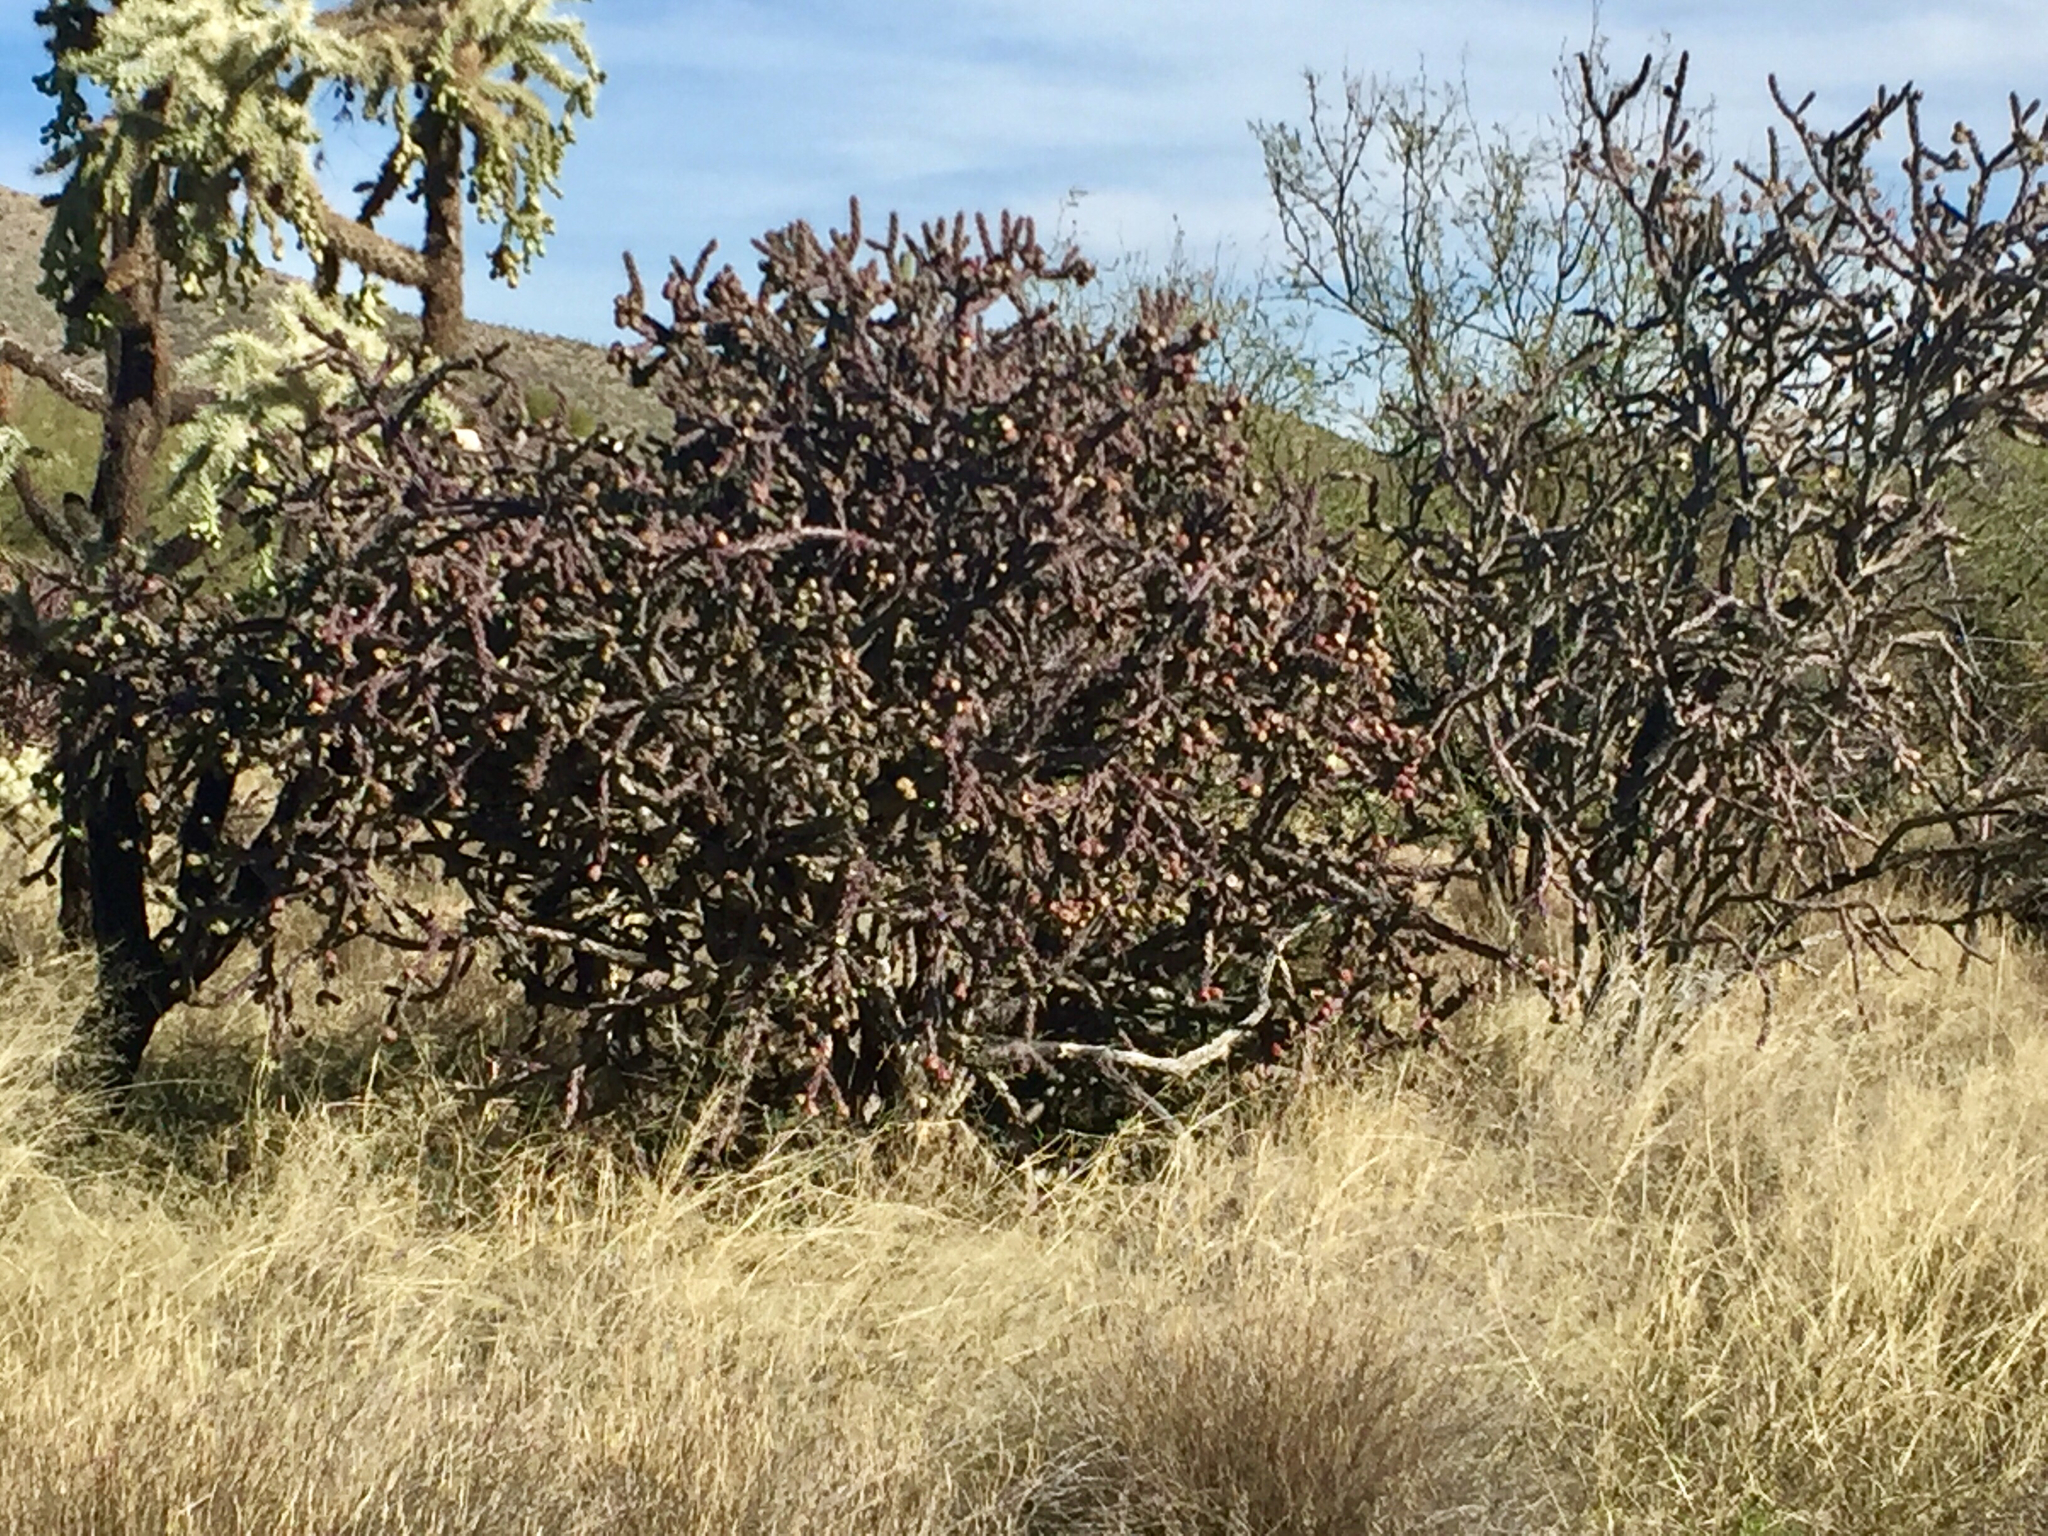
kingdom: Plantae
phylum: Tracheophyta
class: Magnoliopsida
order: Caryophyllales
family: Cactaceae
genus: Cylindropuntia
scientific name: Cylindropuntia thurberi
